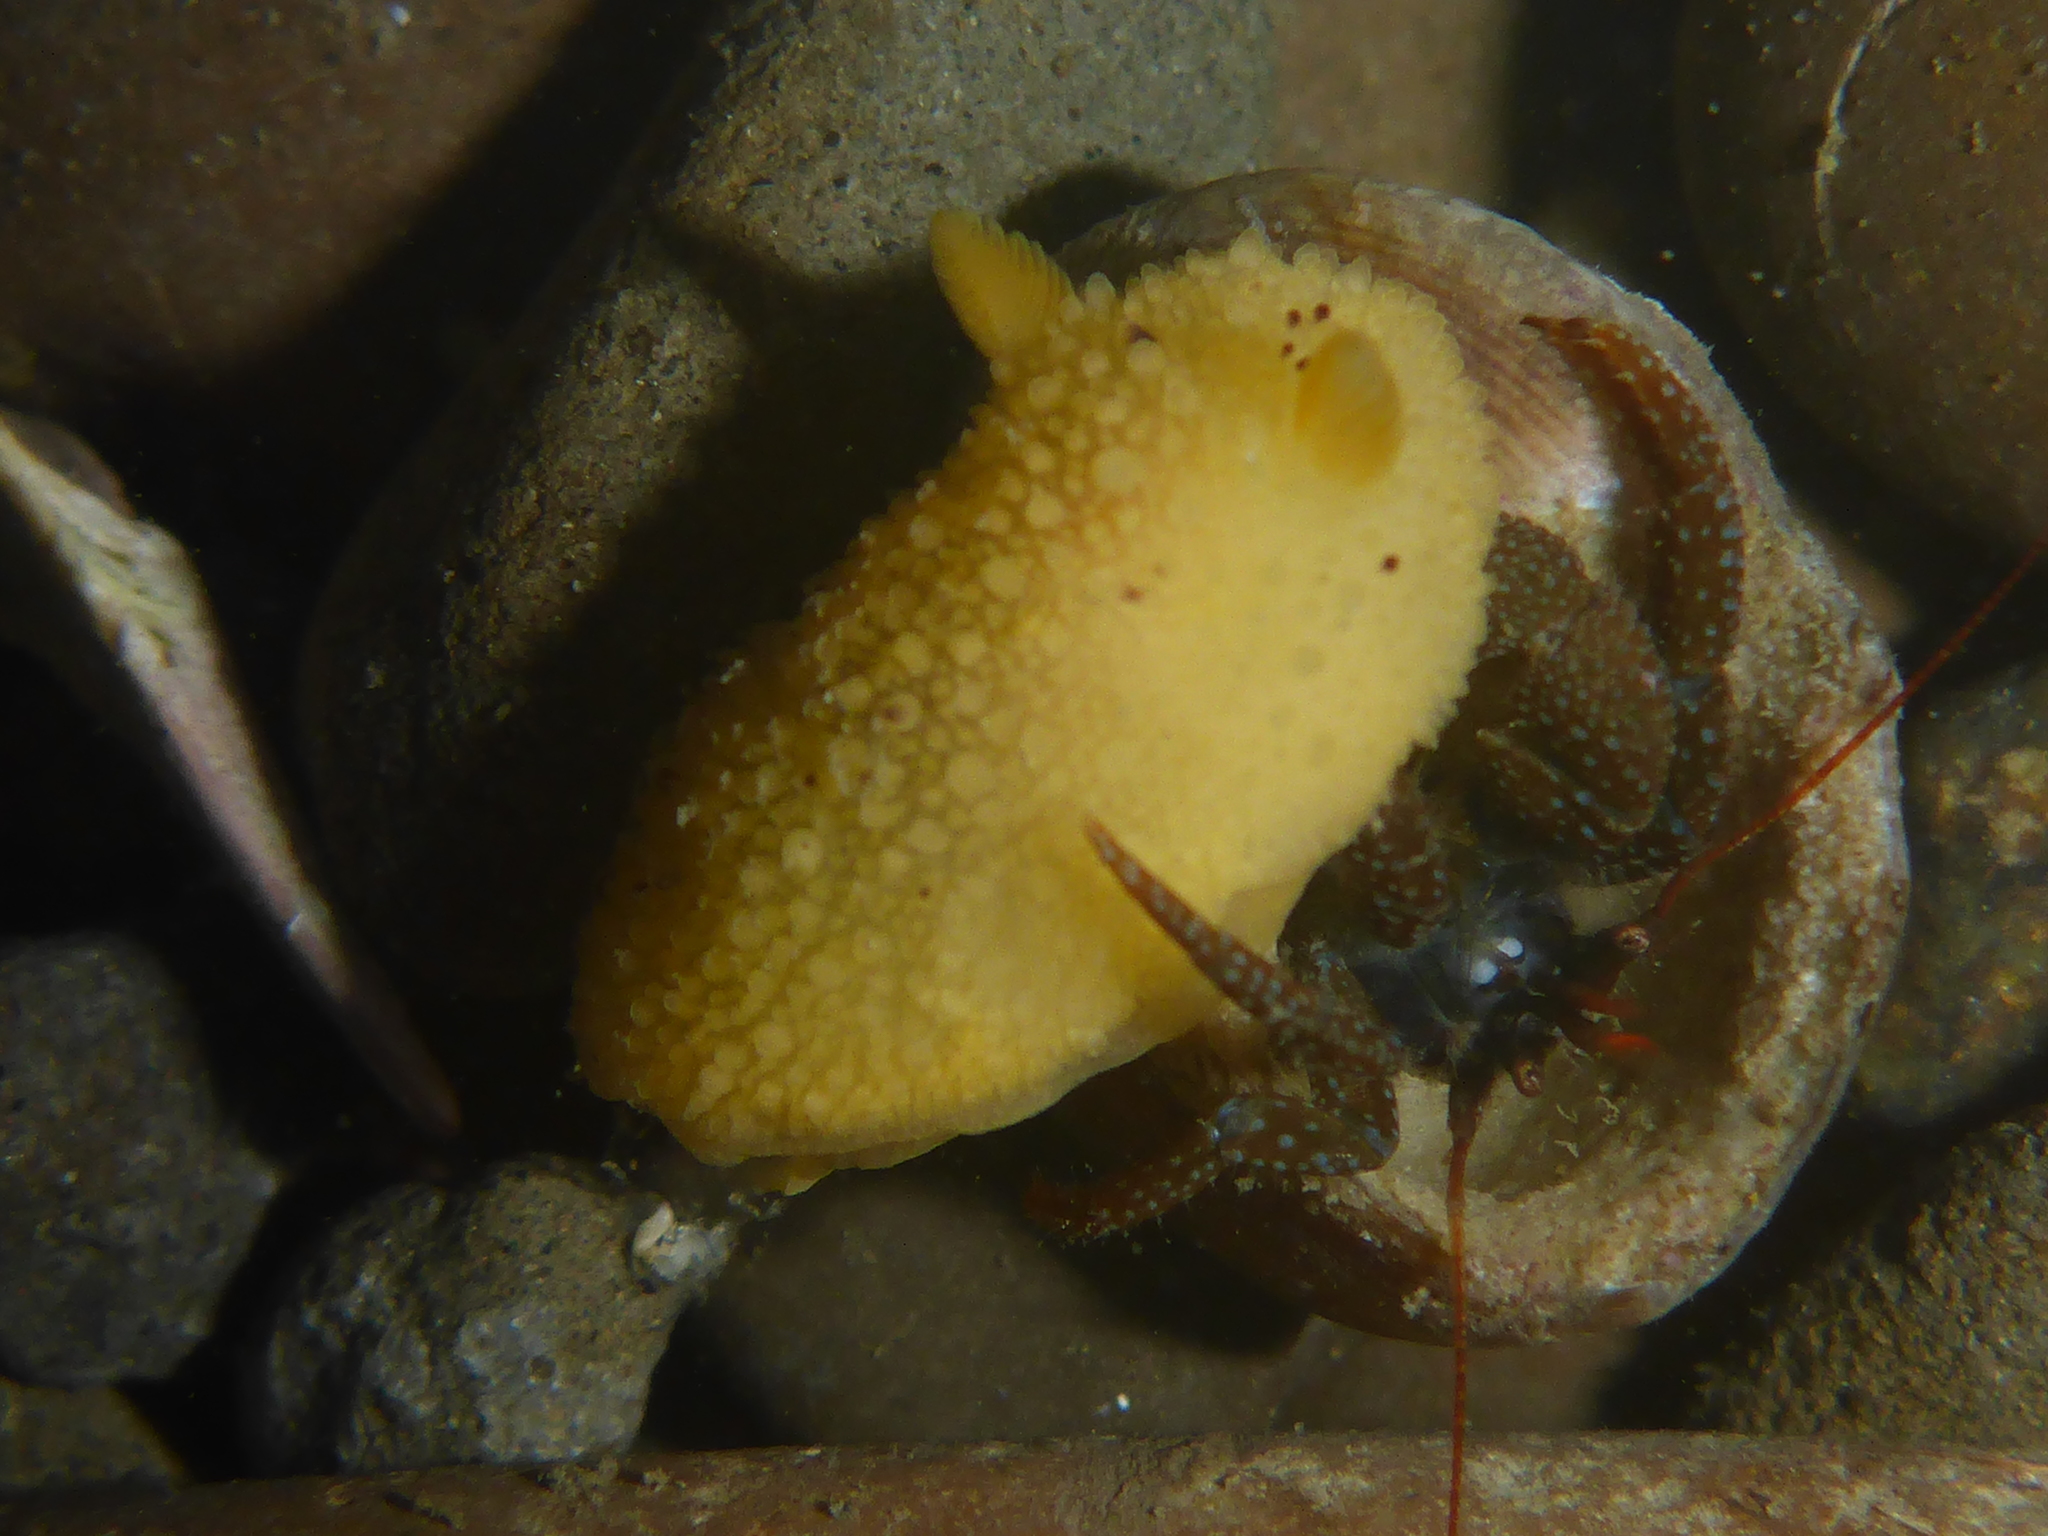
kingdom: Animalia
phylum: Mollusca
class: Gastropoda
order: Nudibranchia
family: Dorididae
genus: Doris
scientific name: Doris montereyensis
